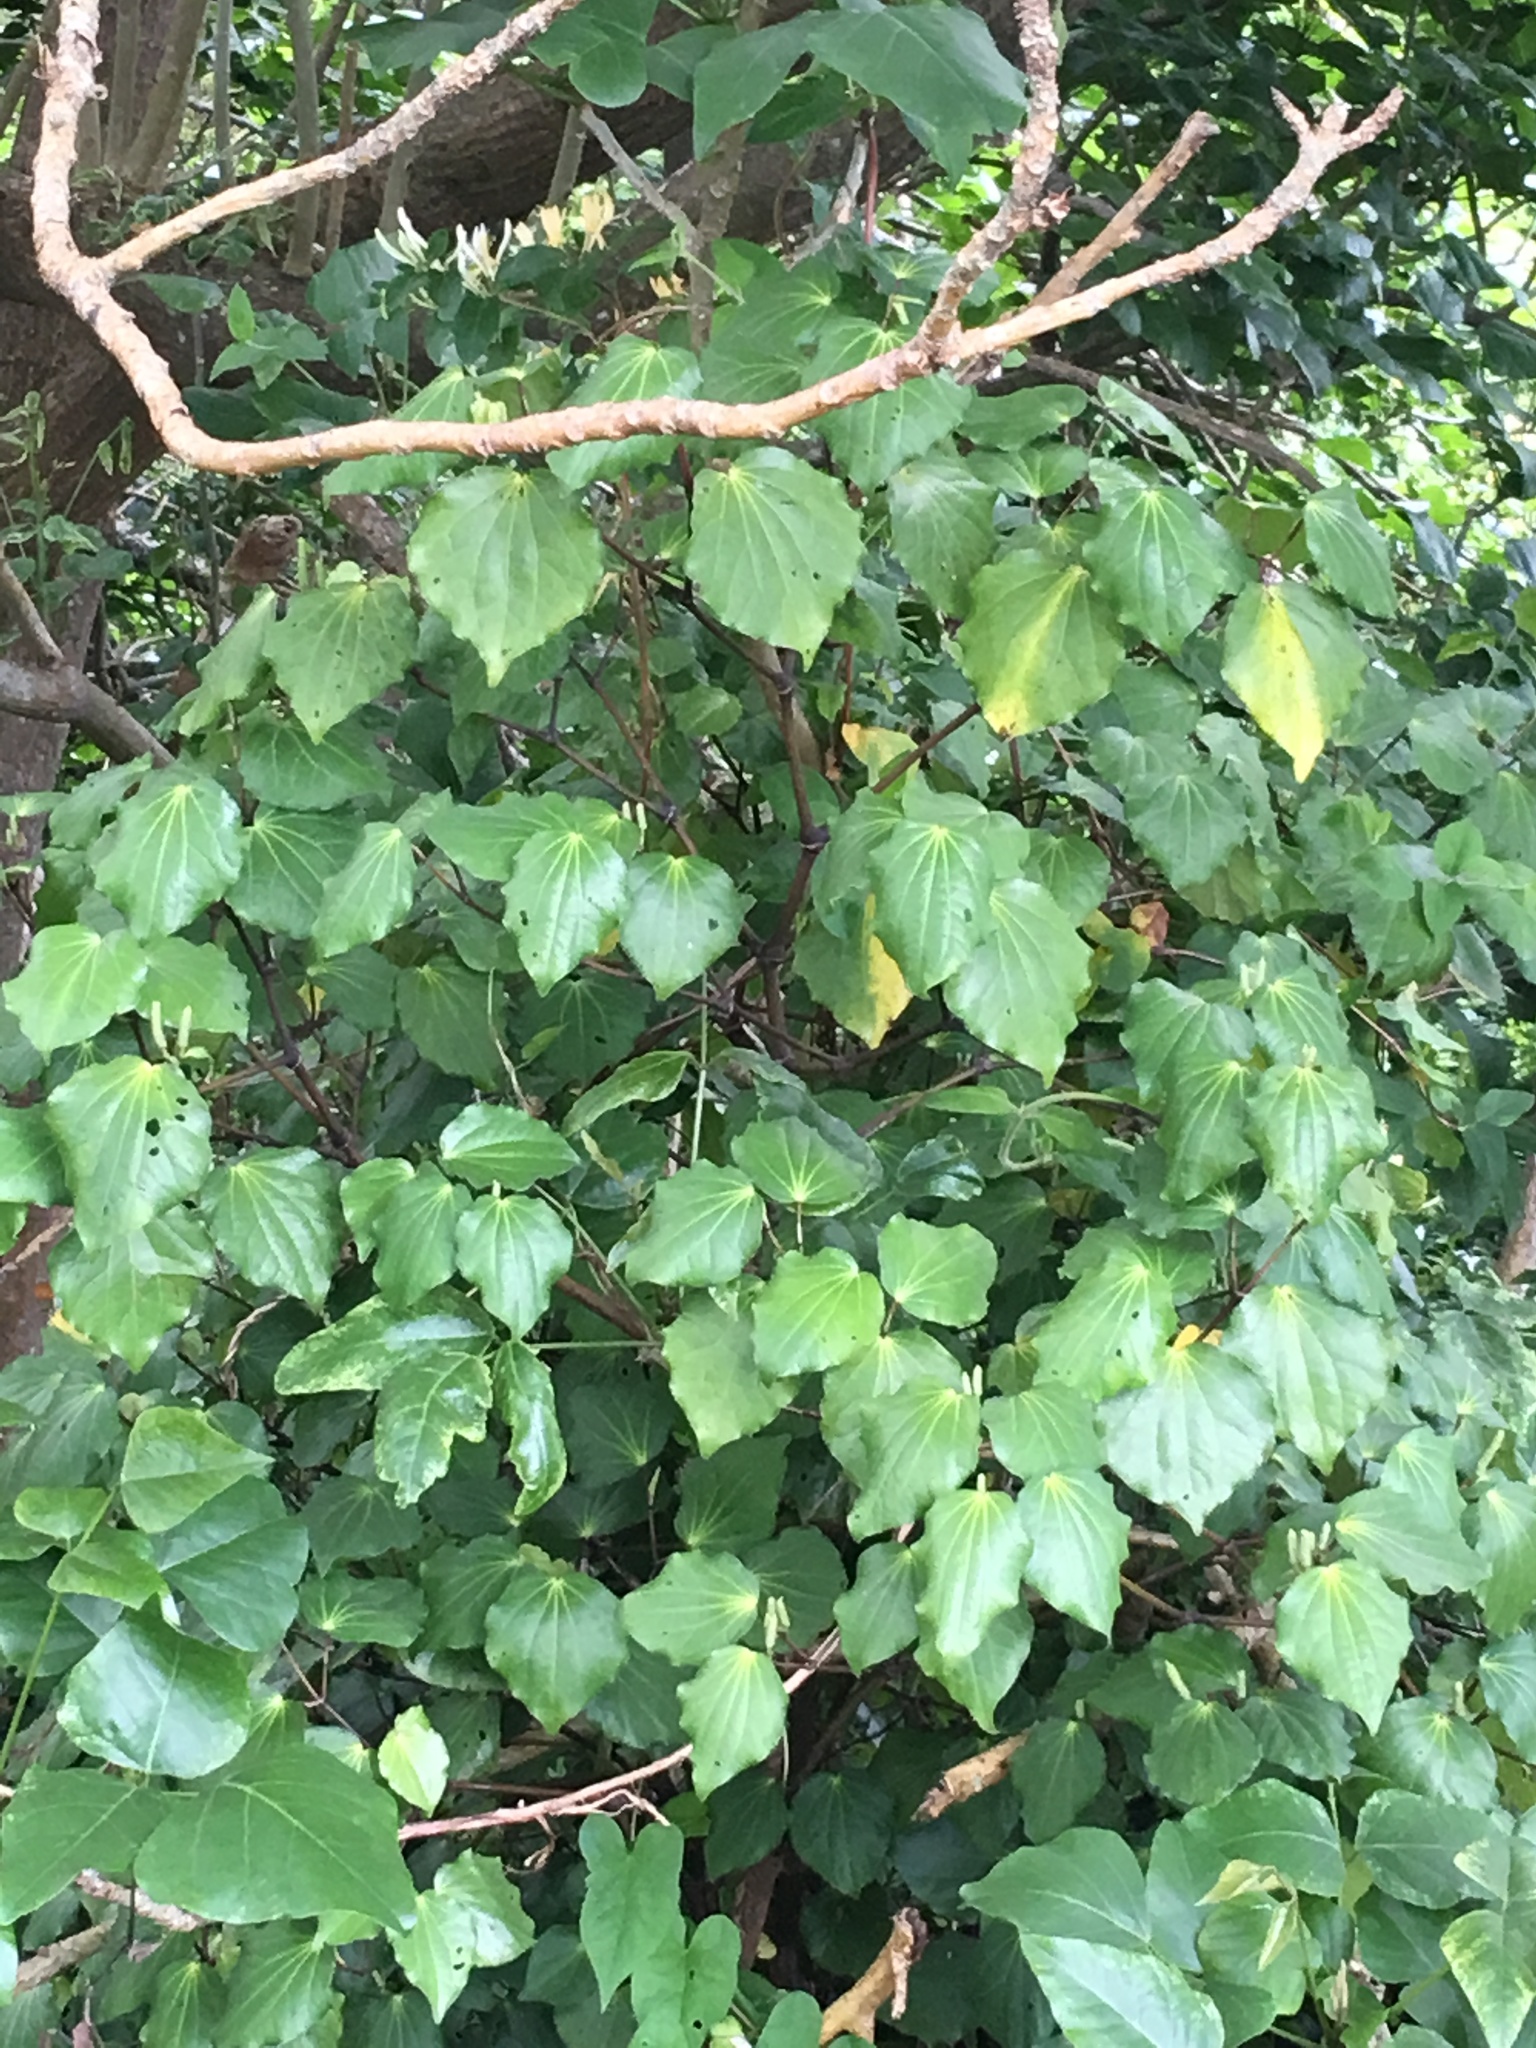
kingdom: Plantae
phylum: Tracheophyta
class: Magnoliopsida
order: Piperales
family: Piperaceae
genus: Macropiper
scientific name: Macropiper excelsum
